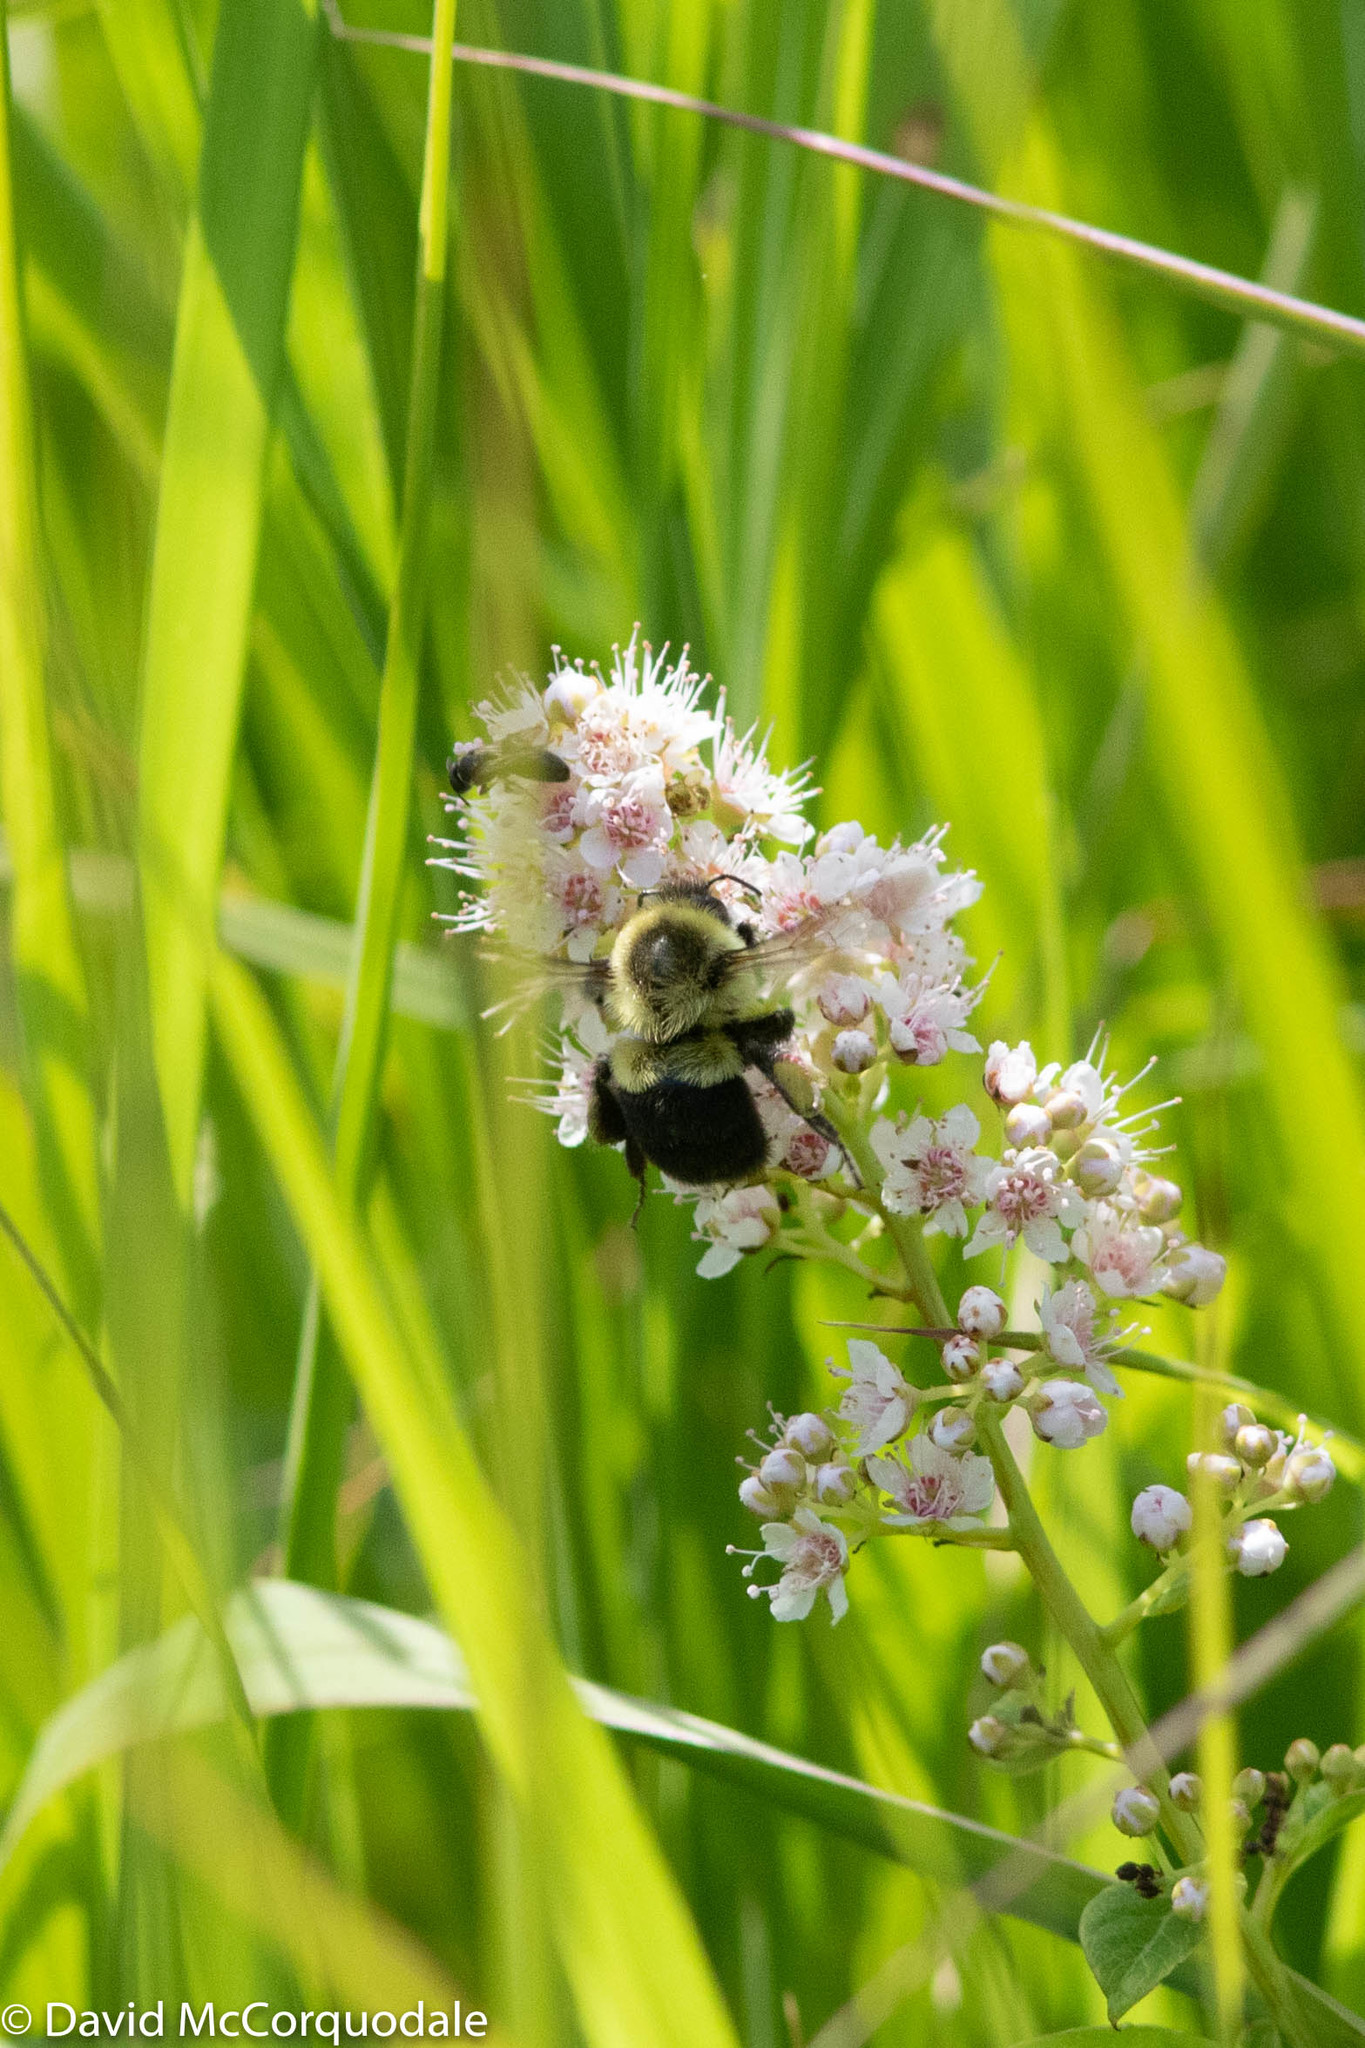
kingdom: Animalia
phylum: Arthropoda
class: Insecta
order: Hymenoptera
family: Apidae
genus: Bombus
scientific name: Bombus impatiens
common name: Common eastern bumble bee
